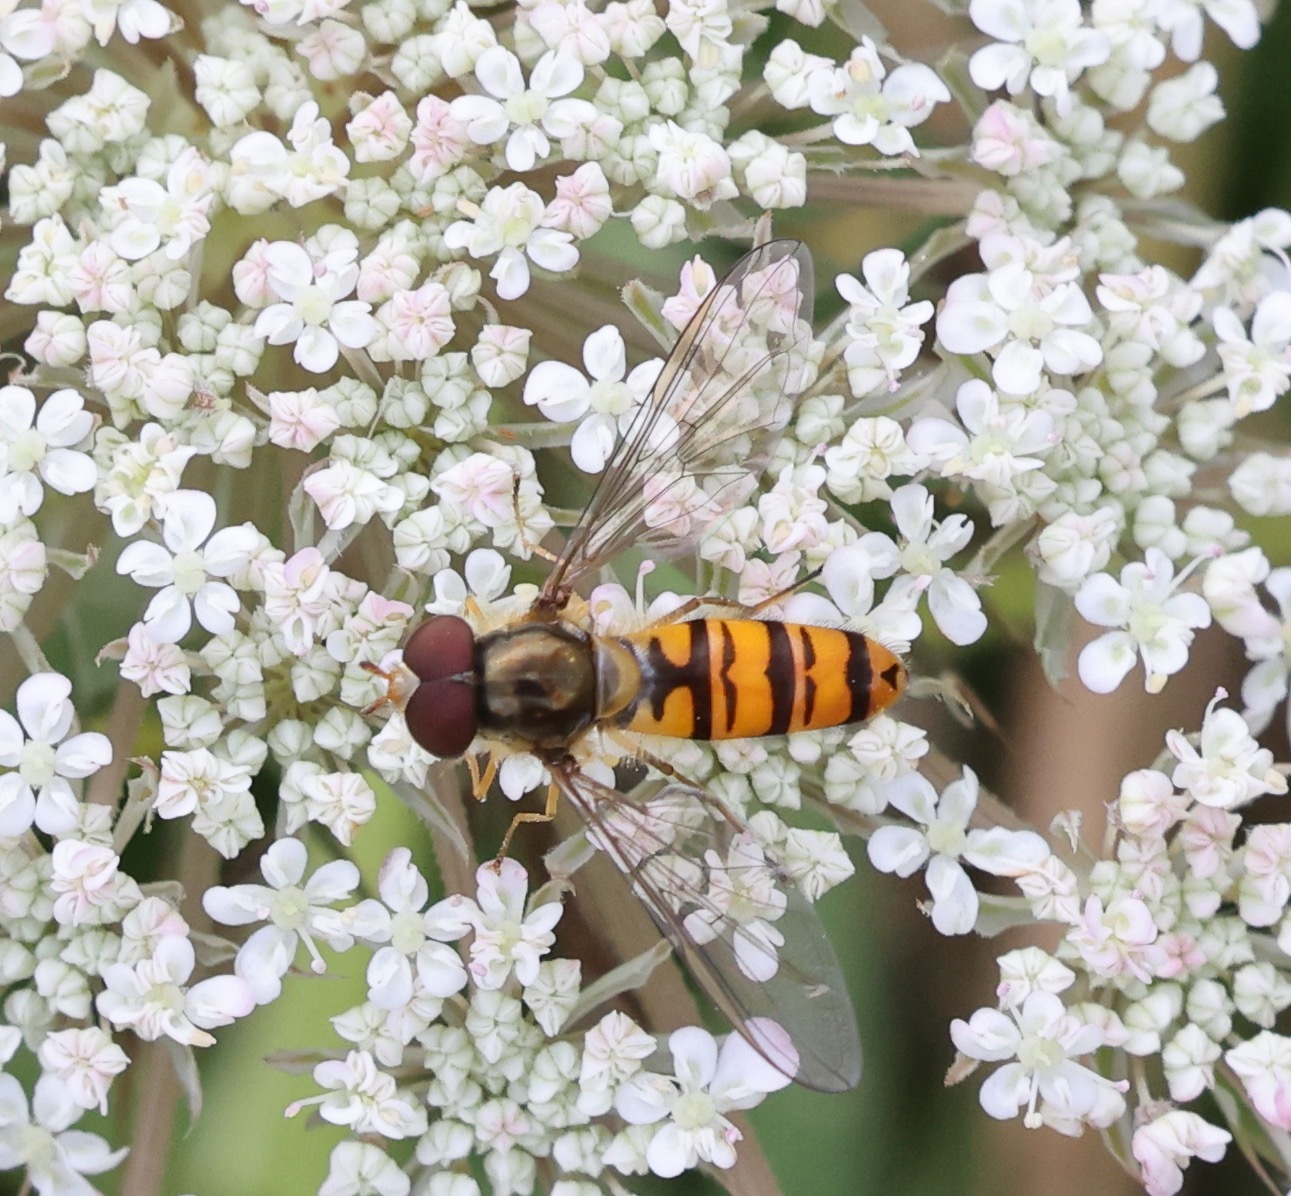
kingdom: Animalia
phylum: Arthropoda
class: Insecta
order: Diptera
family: Syrphidae
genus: Episyrphus
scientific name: Episyrphus balteatus
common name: Marmalade hoverfly
